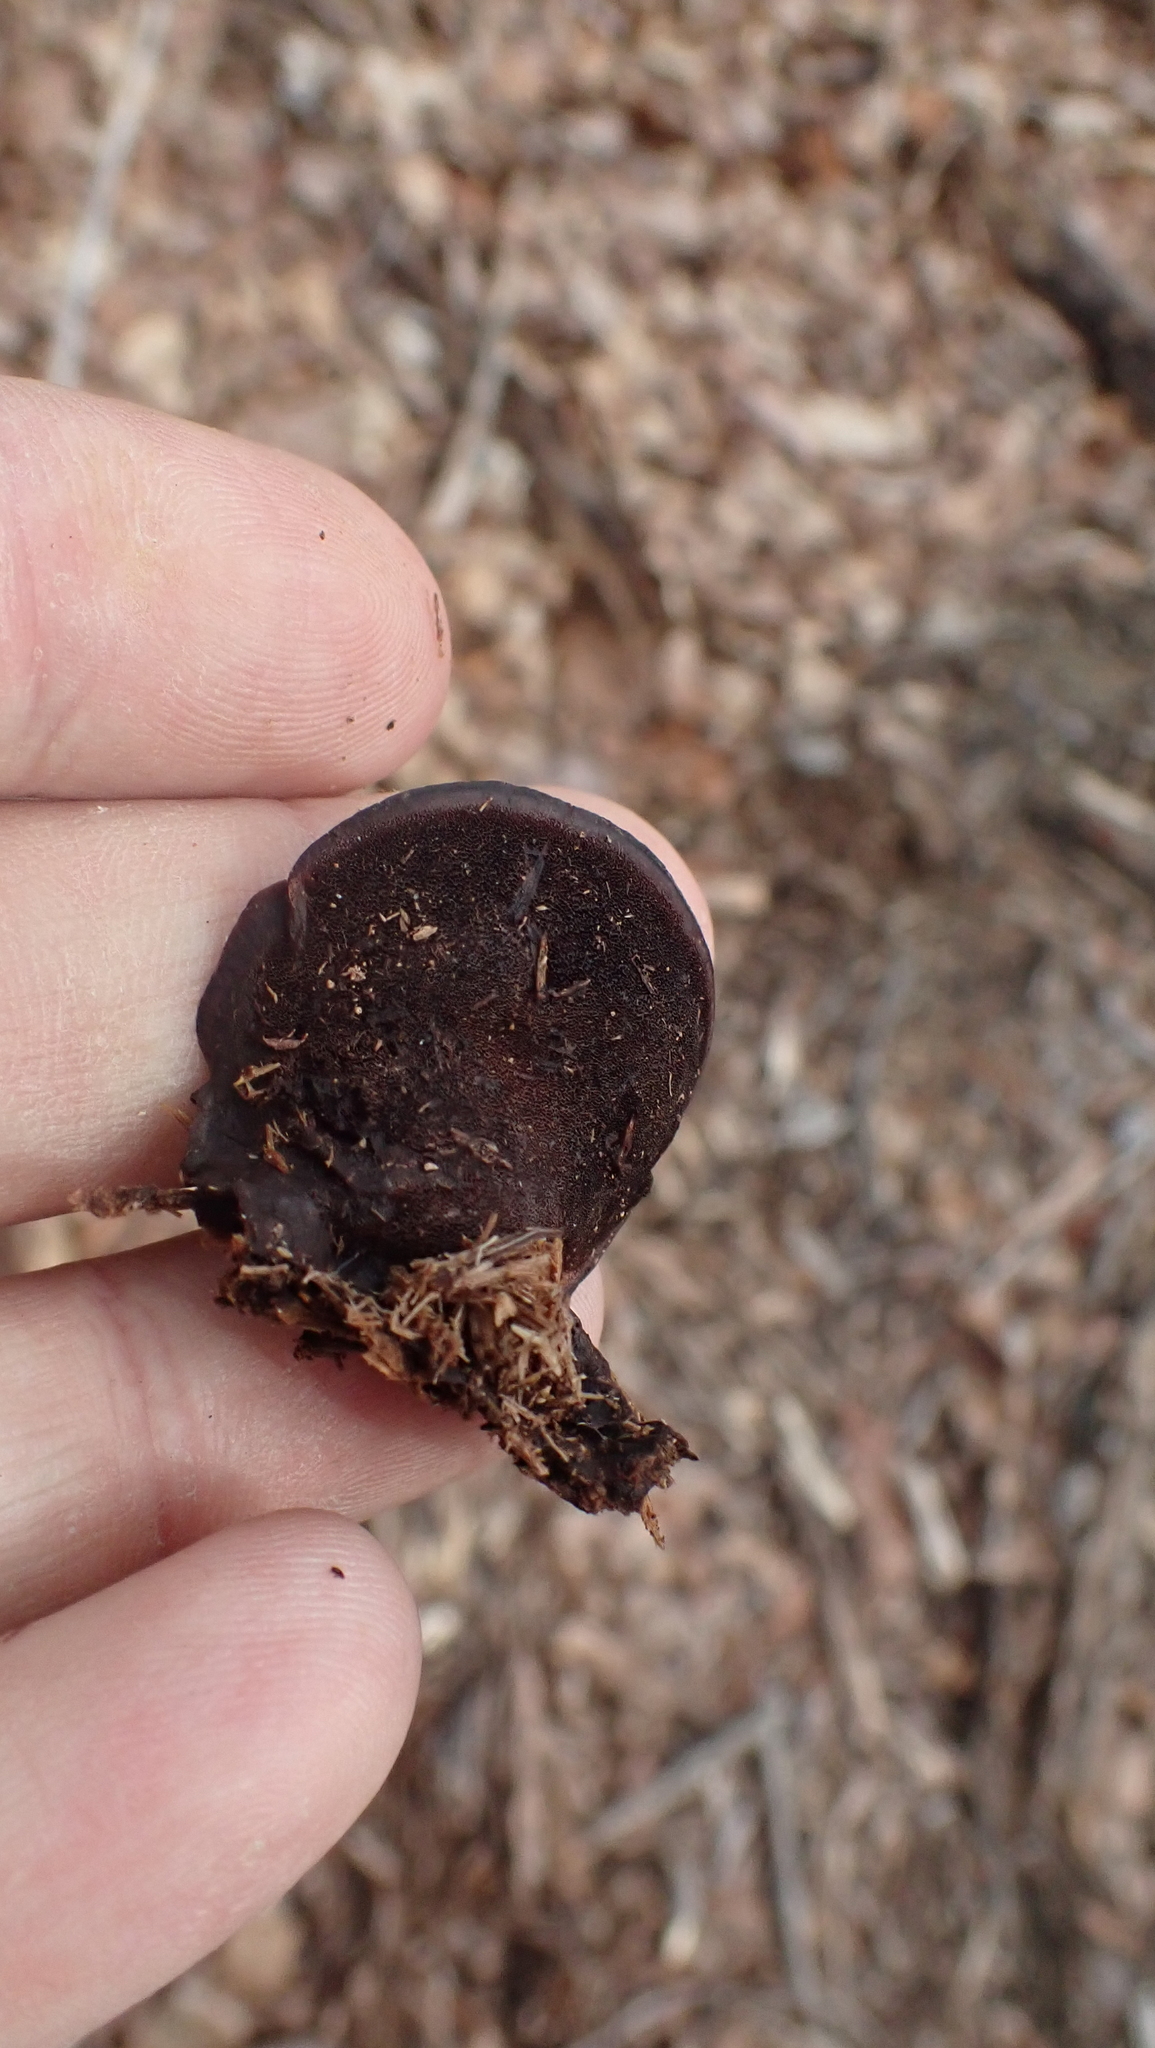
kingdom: Fungi
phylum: Basidiomycota
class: Agaricomycetes
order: Polyporales
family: Steccherinaceae
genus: Nigroporus
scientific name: Nigroporus vinosus
